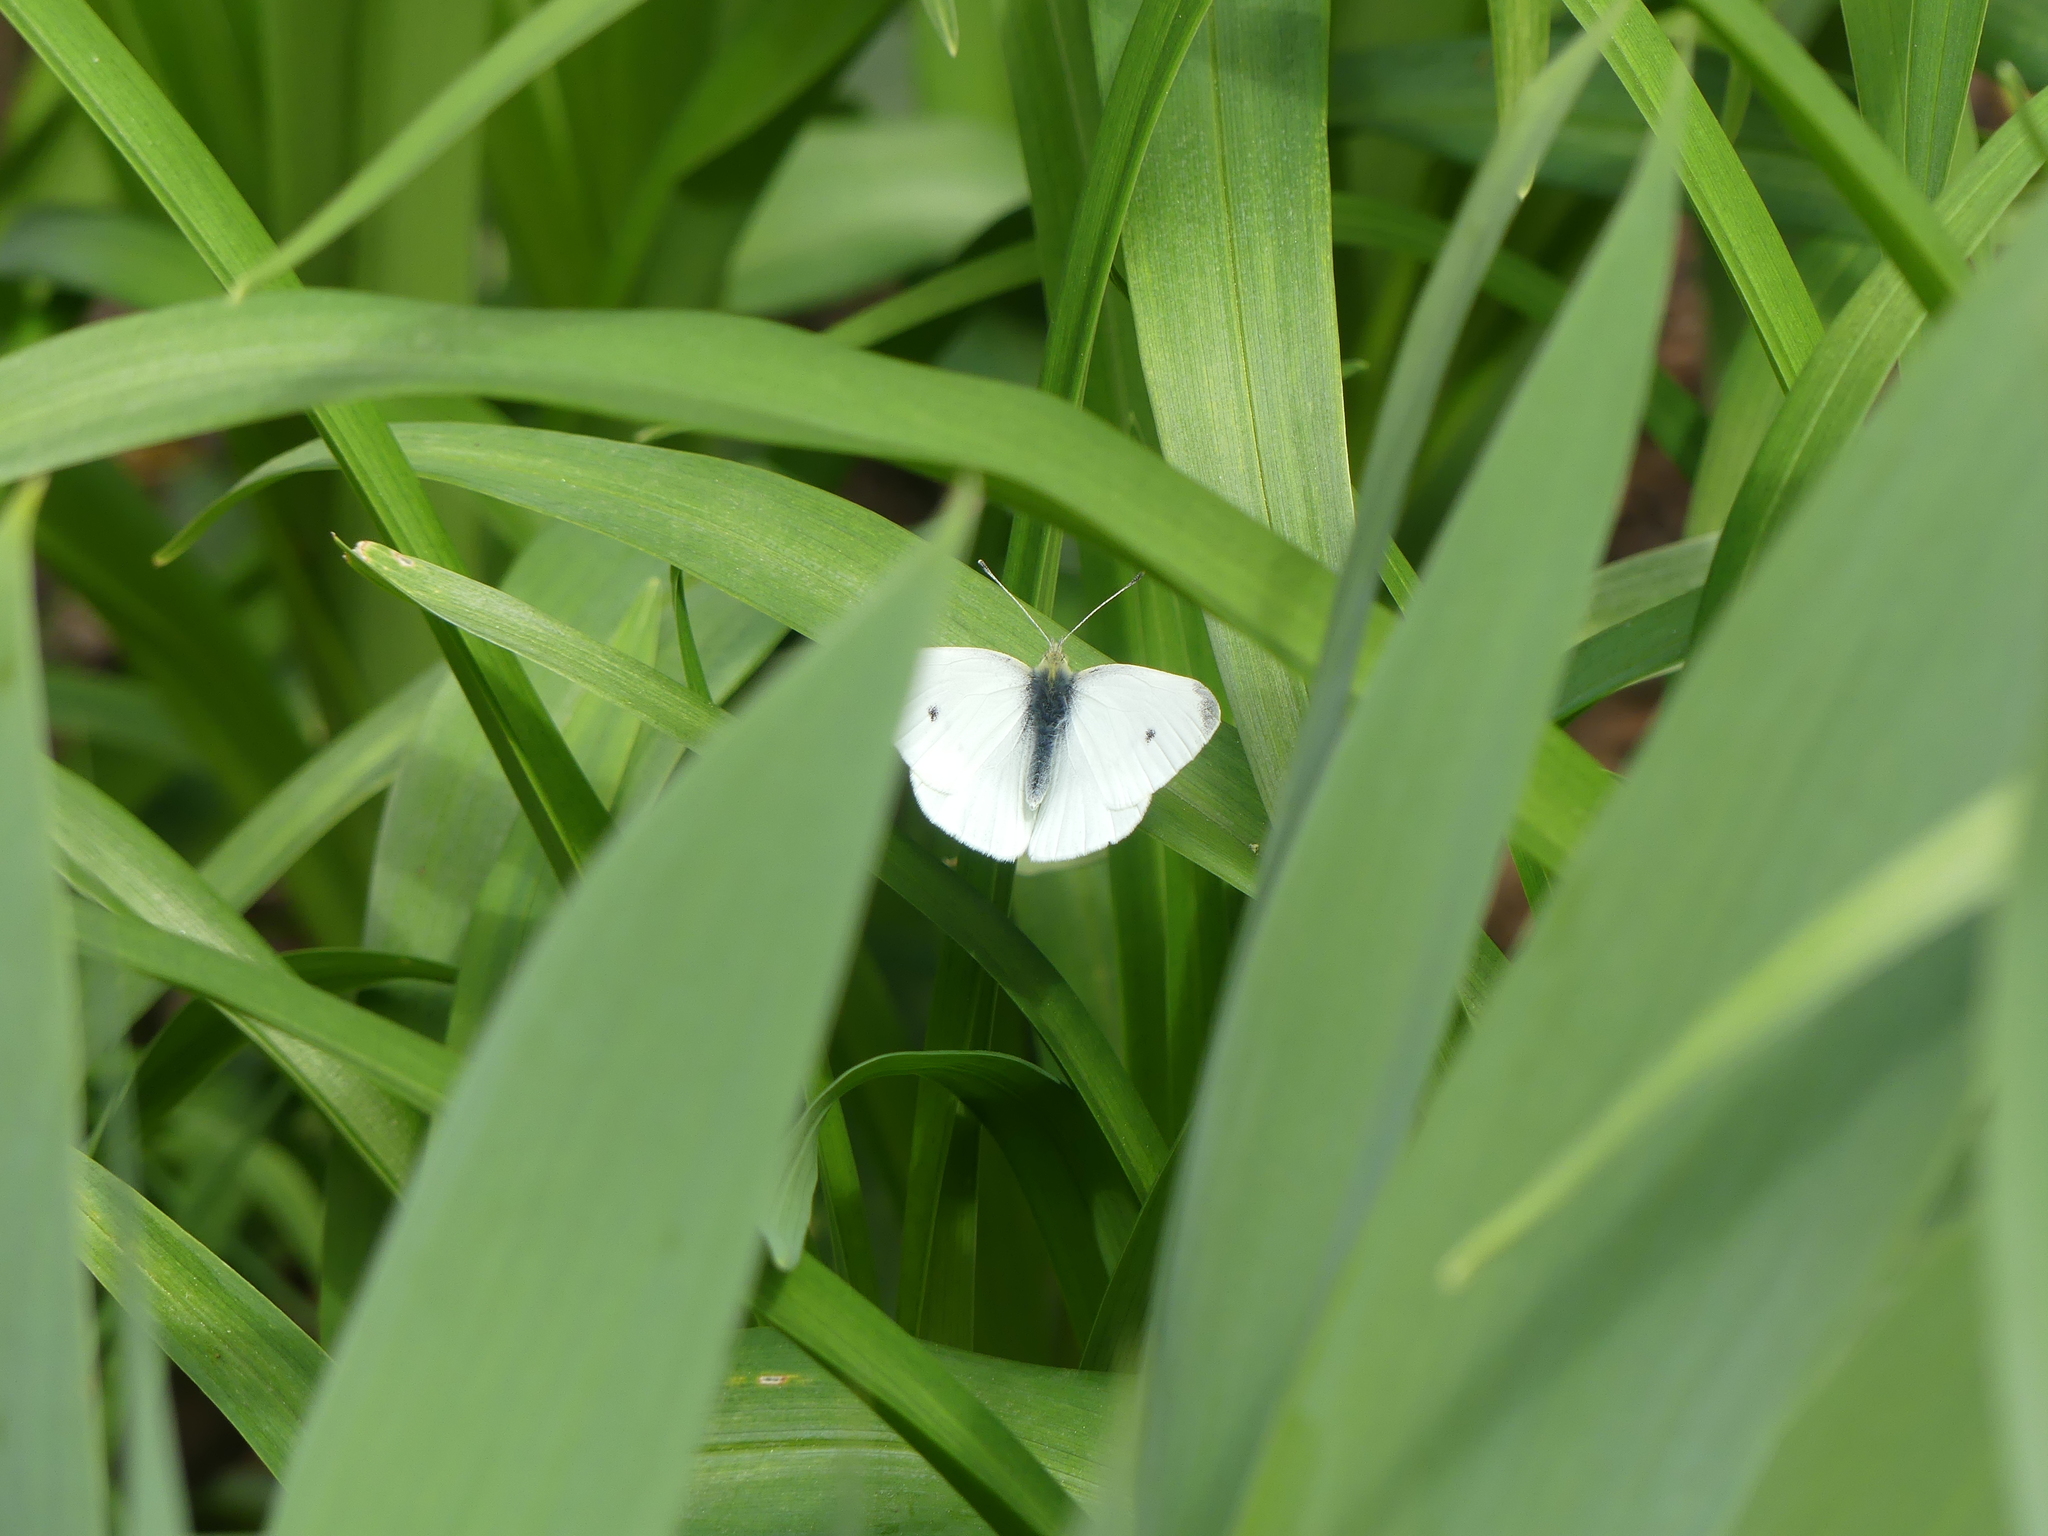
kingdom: Animalia
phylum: Arthropoda
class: Insecta
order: Lepidoptera
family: Pieridae
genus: Pieris
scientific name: Pieris rapae
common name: Small white
